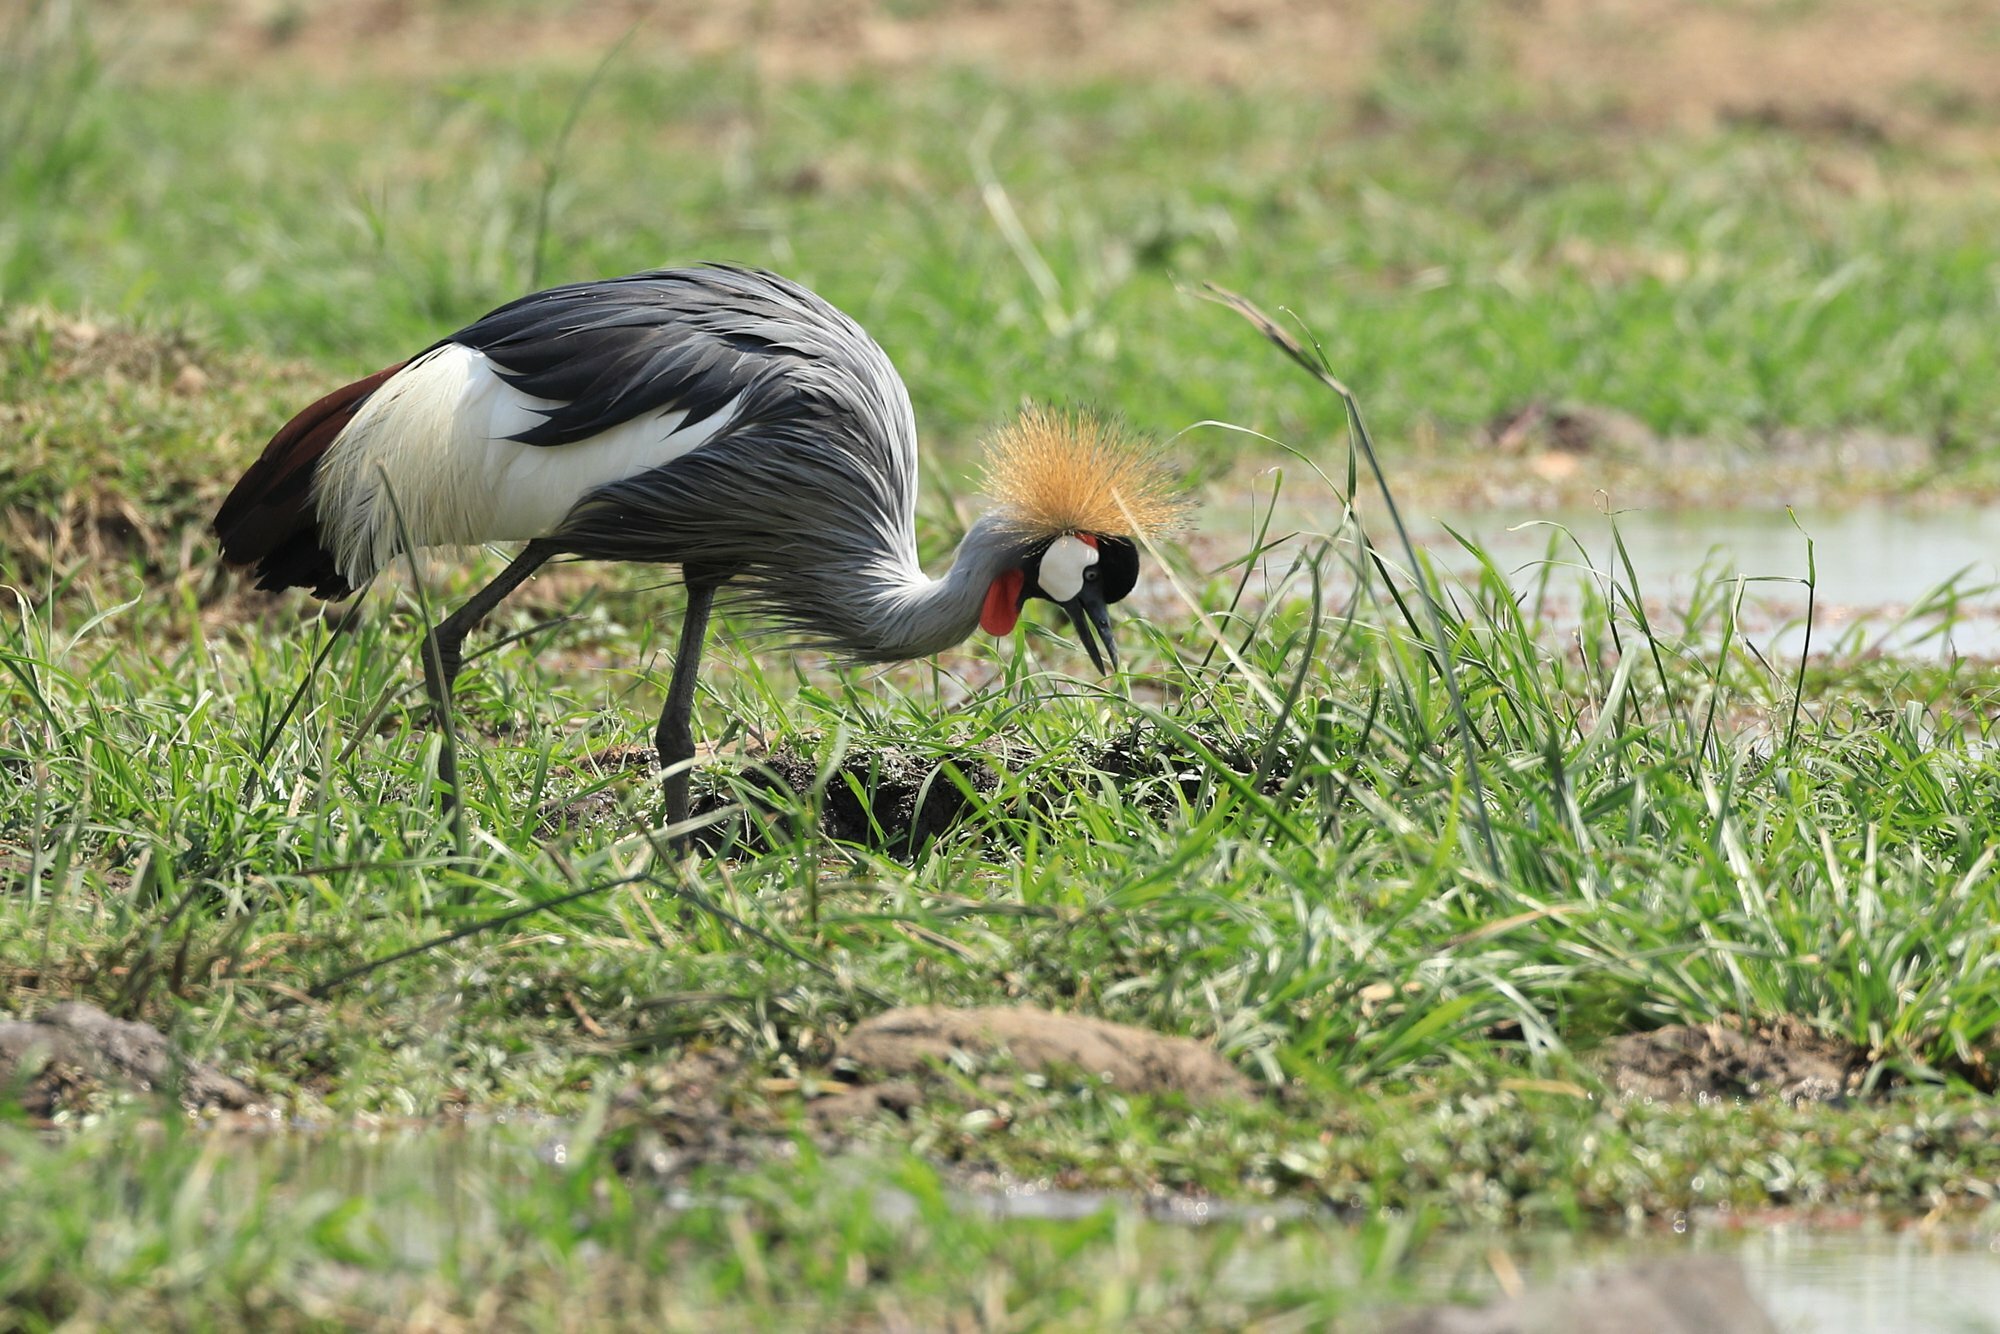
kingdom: Animalia
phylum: Chordata
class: Aves
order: Gruiformes
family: Gruidae
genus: Balearica
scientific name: Balearica regulorum
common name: Grey crowned crane
